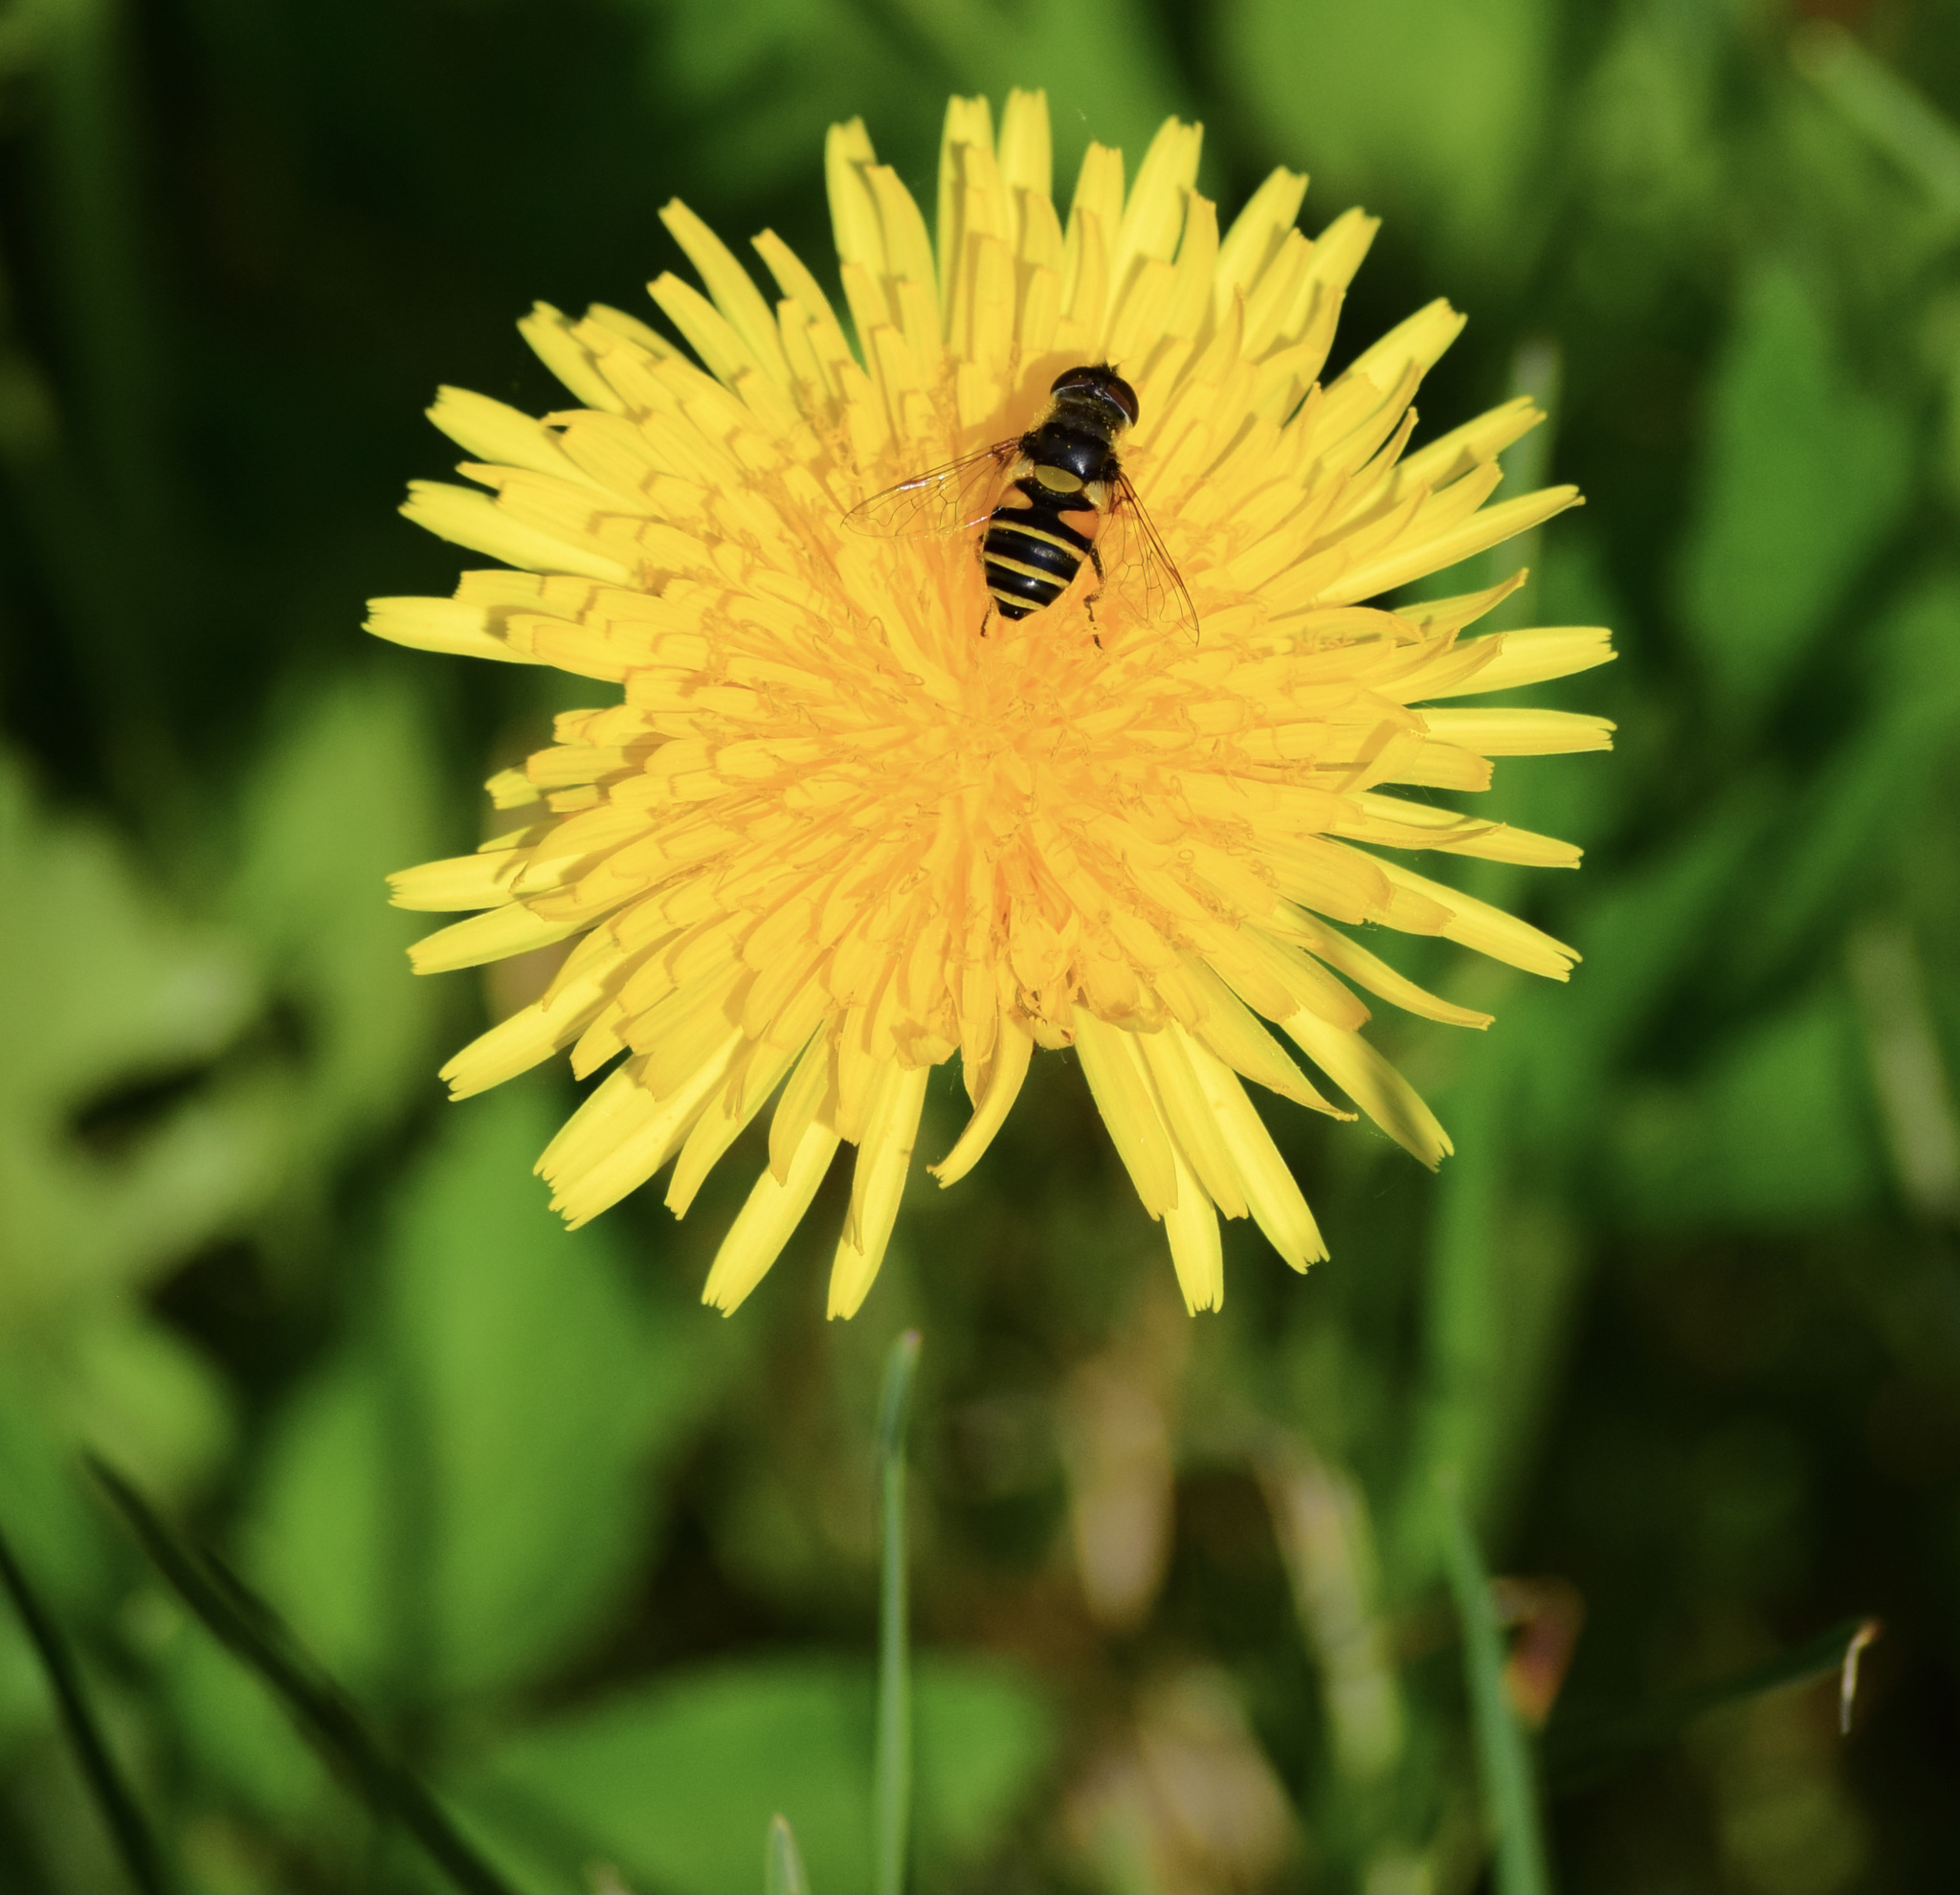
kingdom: Animalia
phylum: Arthropoda
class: Insecta
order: Diptera
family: Syrphidae
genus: Eristalis
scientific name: Eristalis transversa
